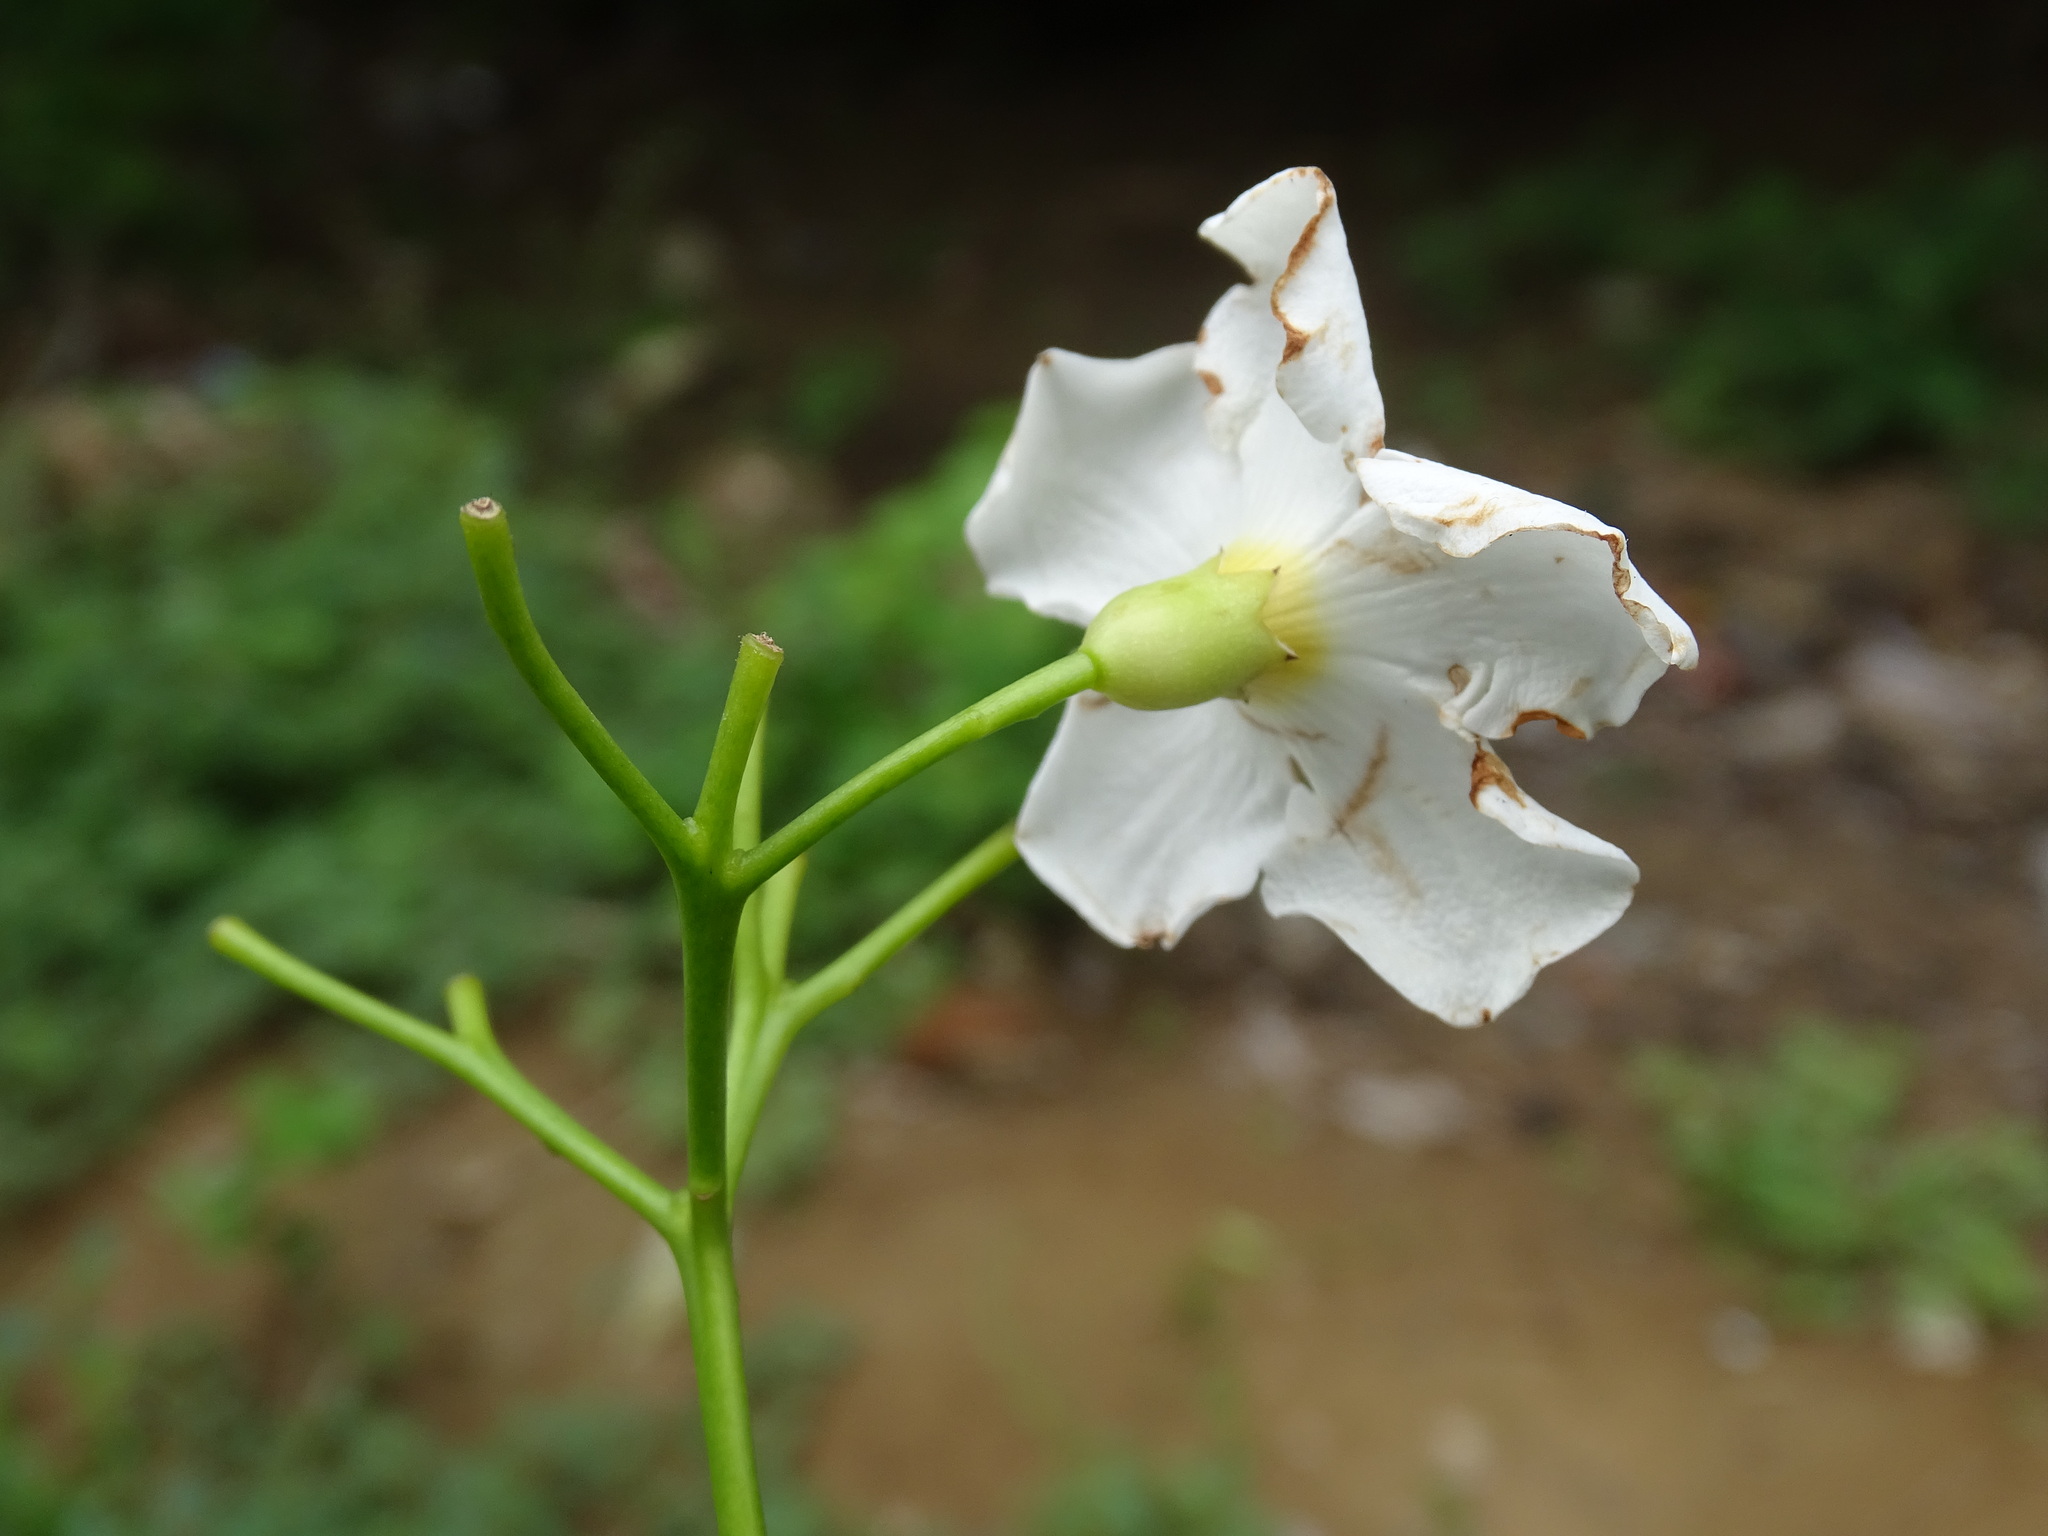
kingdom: Plantae
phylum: Tracheophyta
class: Magnoliopsida
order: Boraginales
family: Ehretiaceae
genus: Bourreria
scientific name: Bourreria huanita
